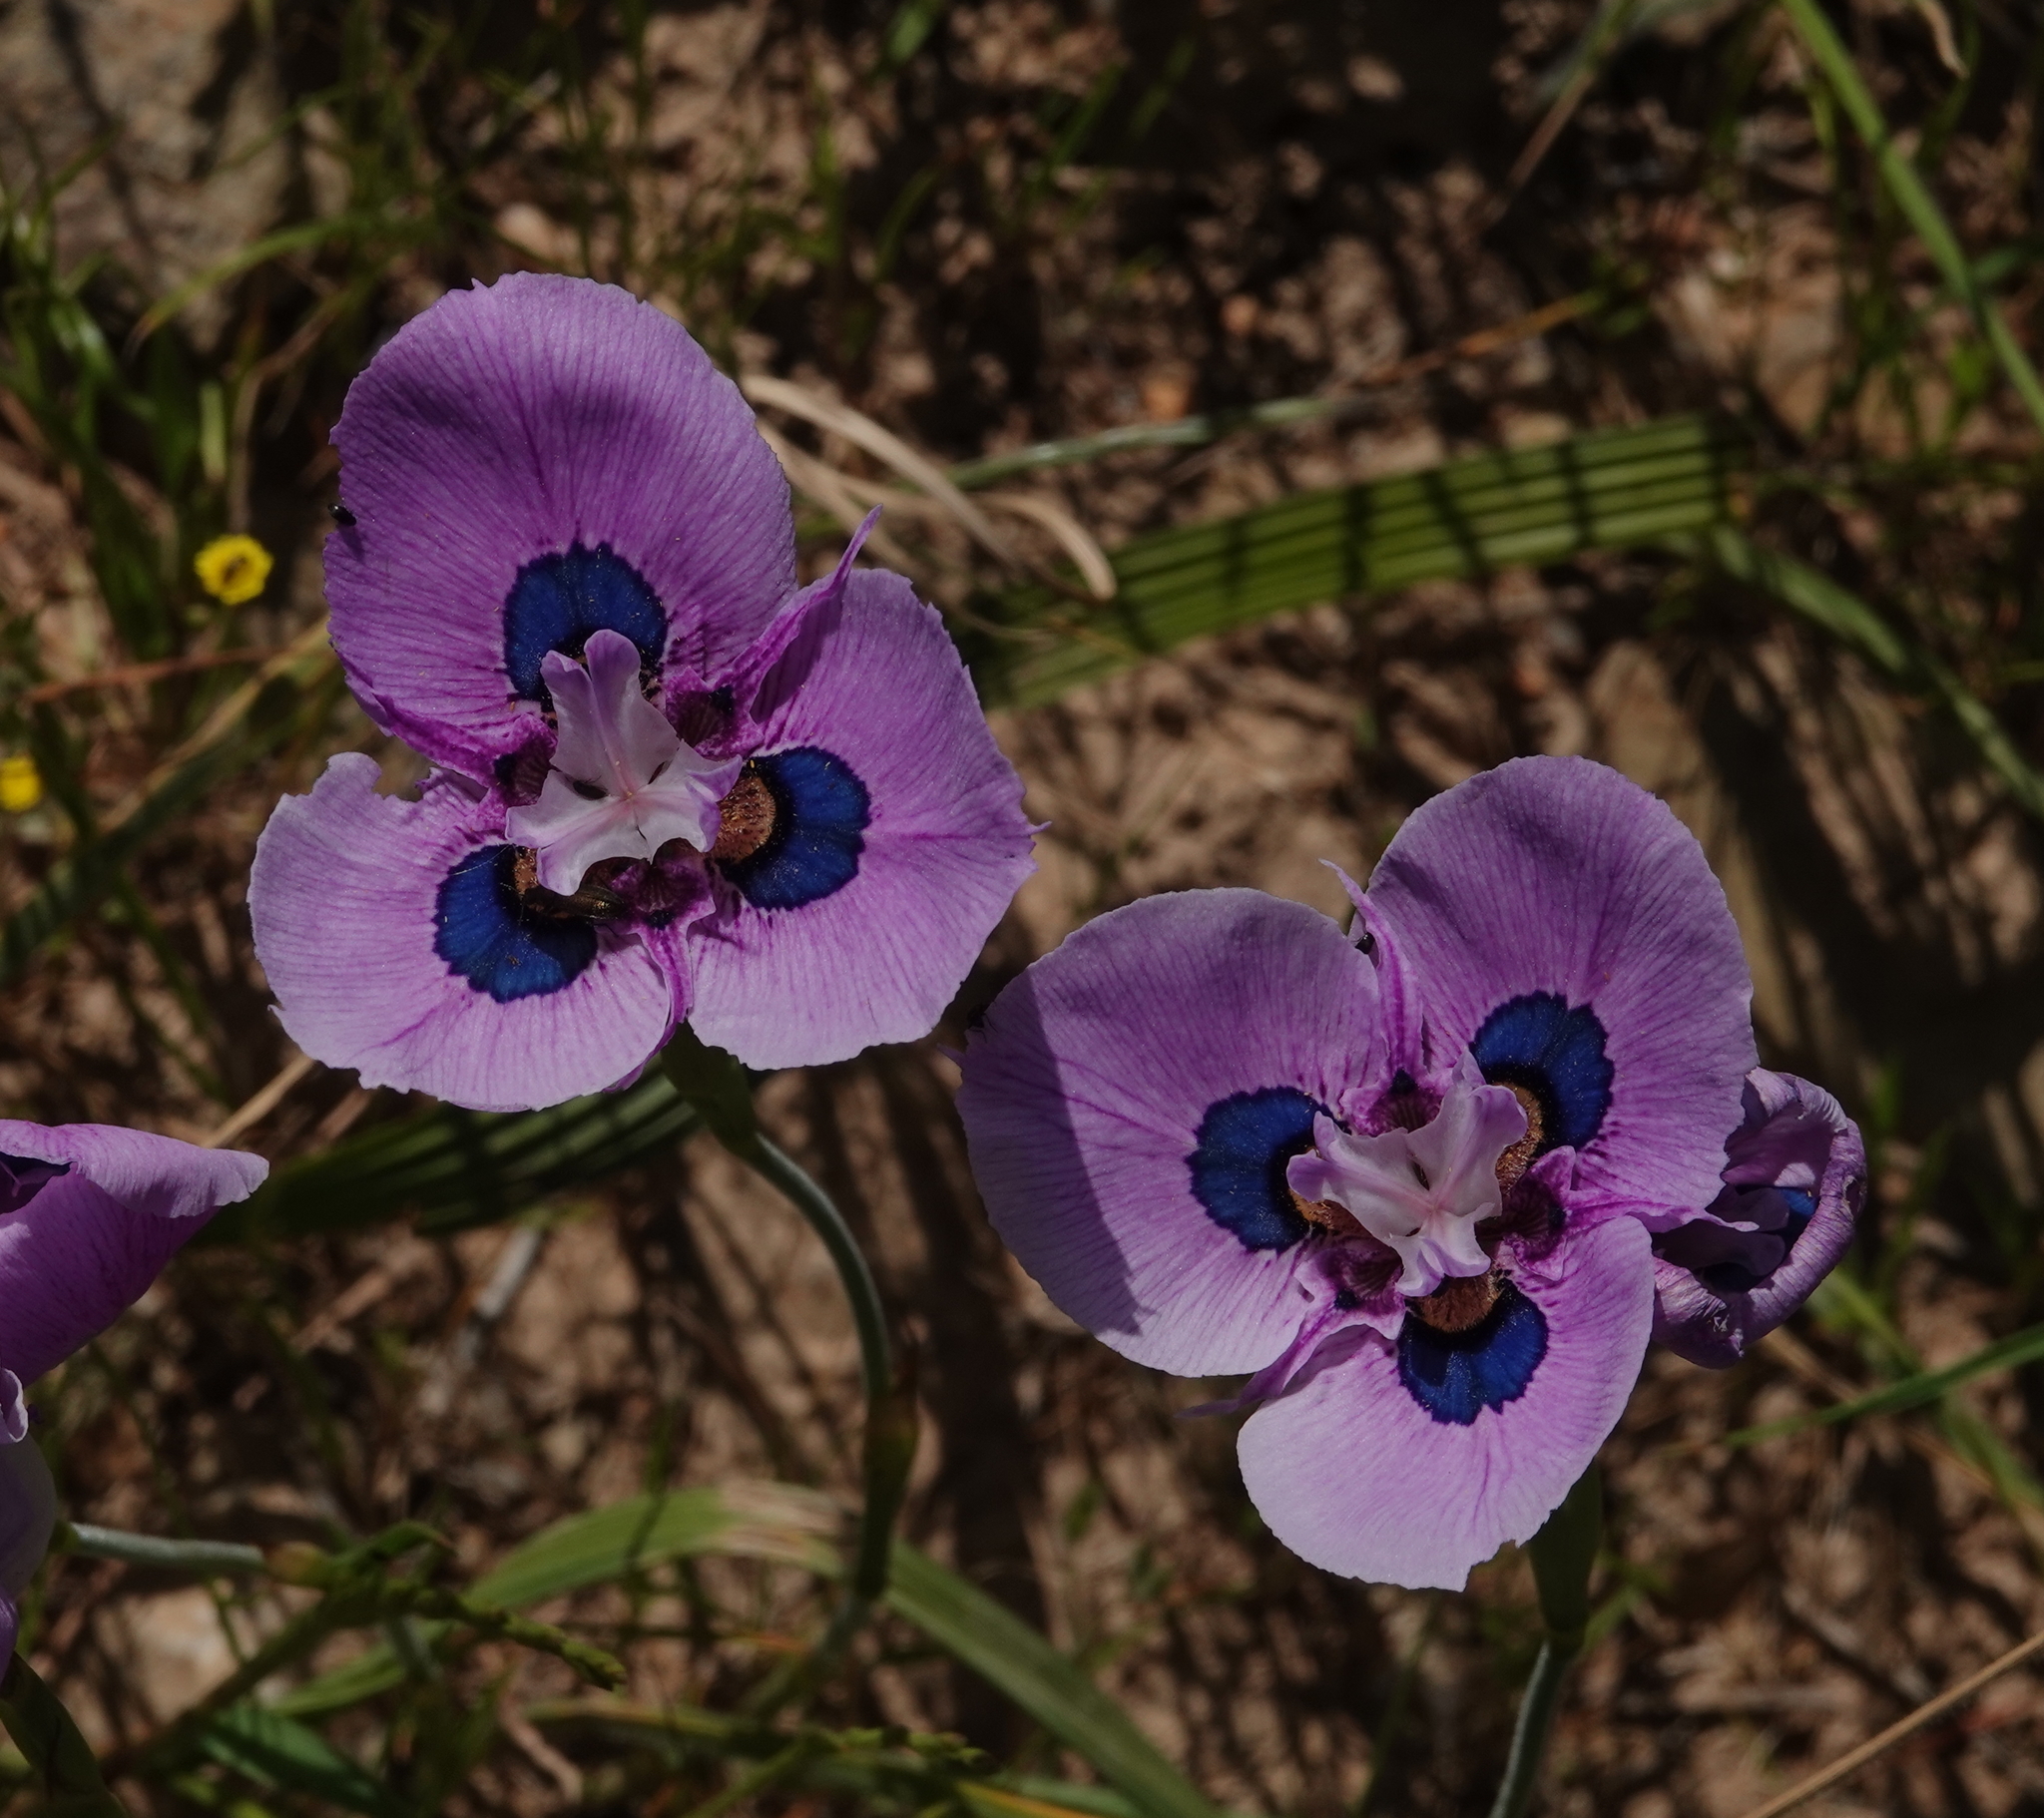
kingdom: Plantae
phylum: Tracheophyta
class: Liliopsida
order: Asparagales
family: Iridaceae
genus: Moraea
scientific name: Moraea villosa
